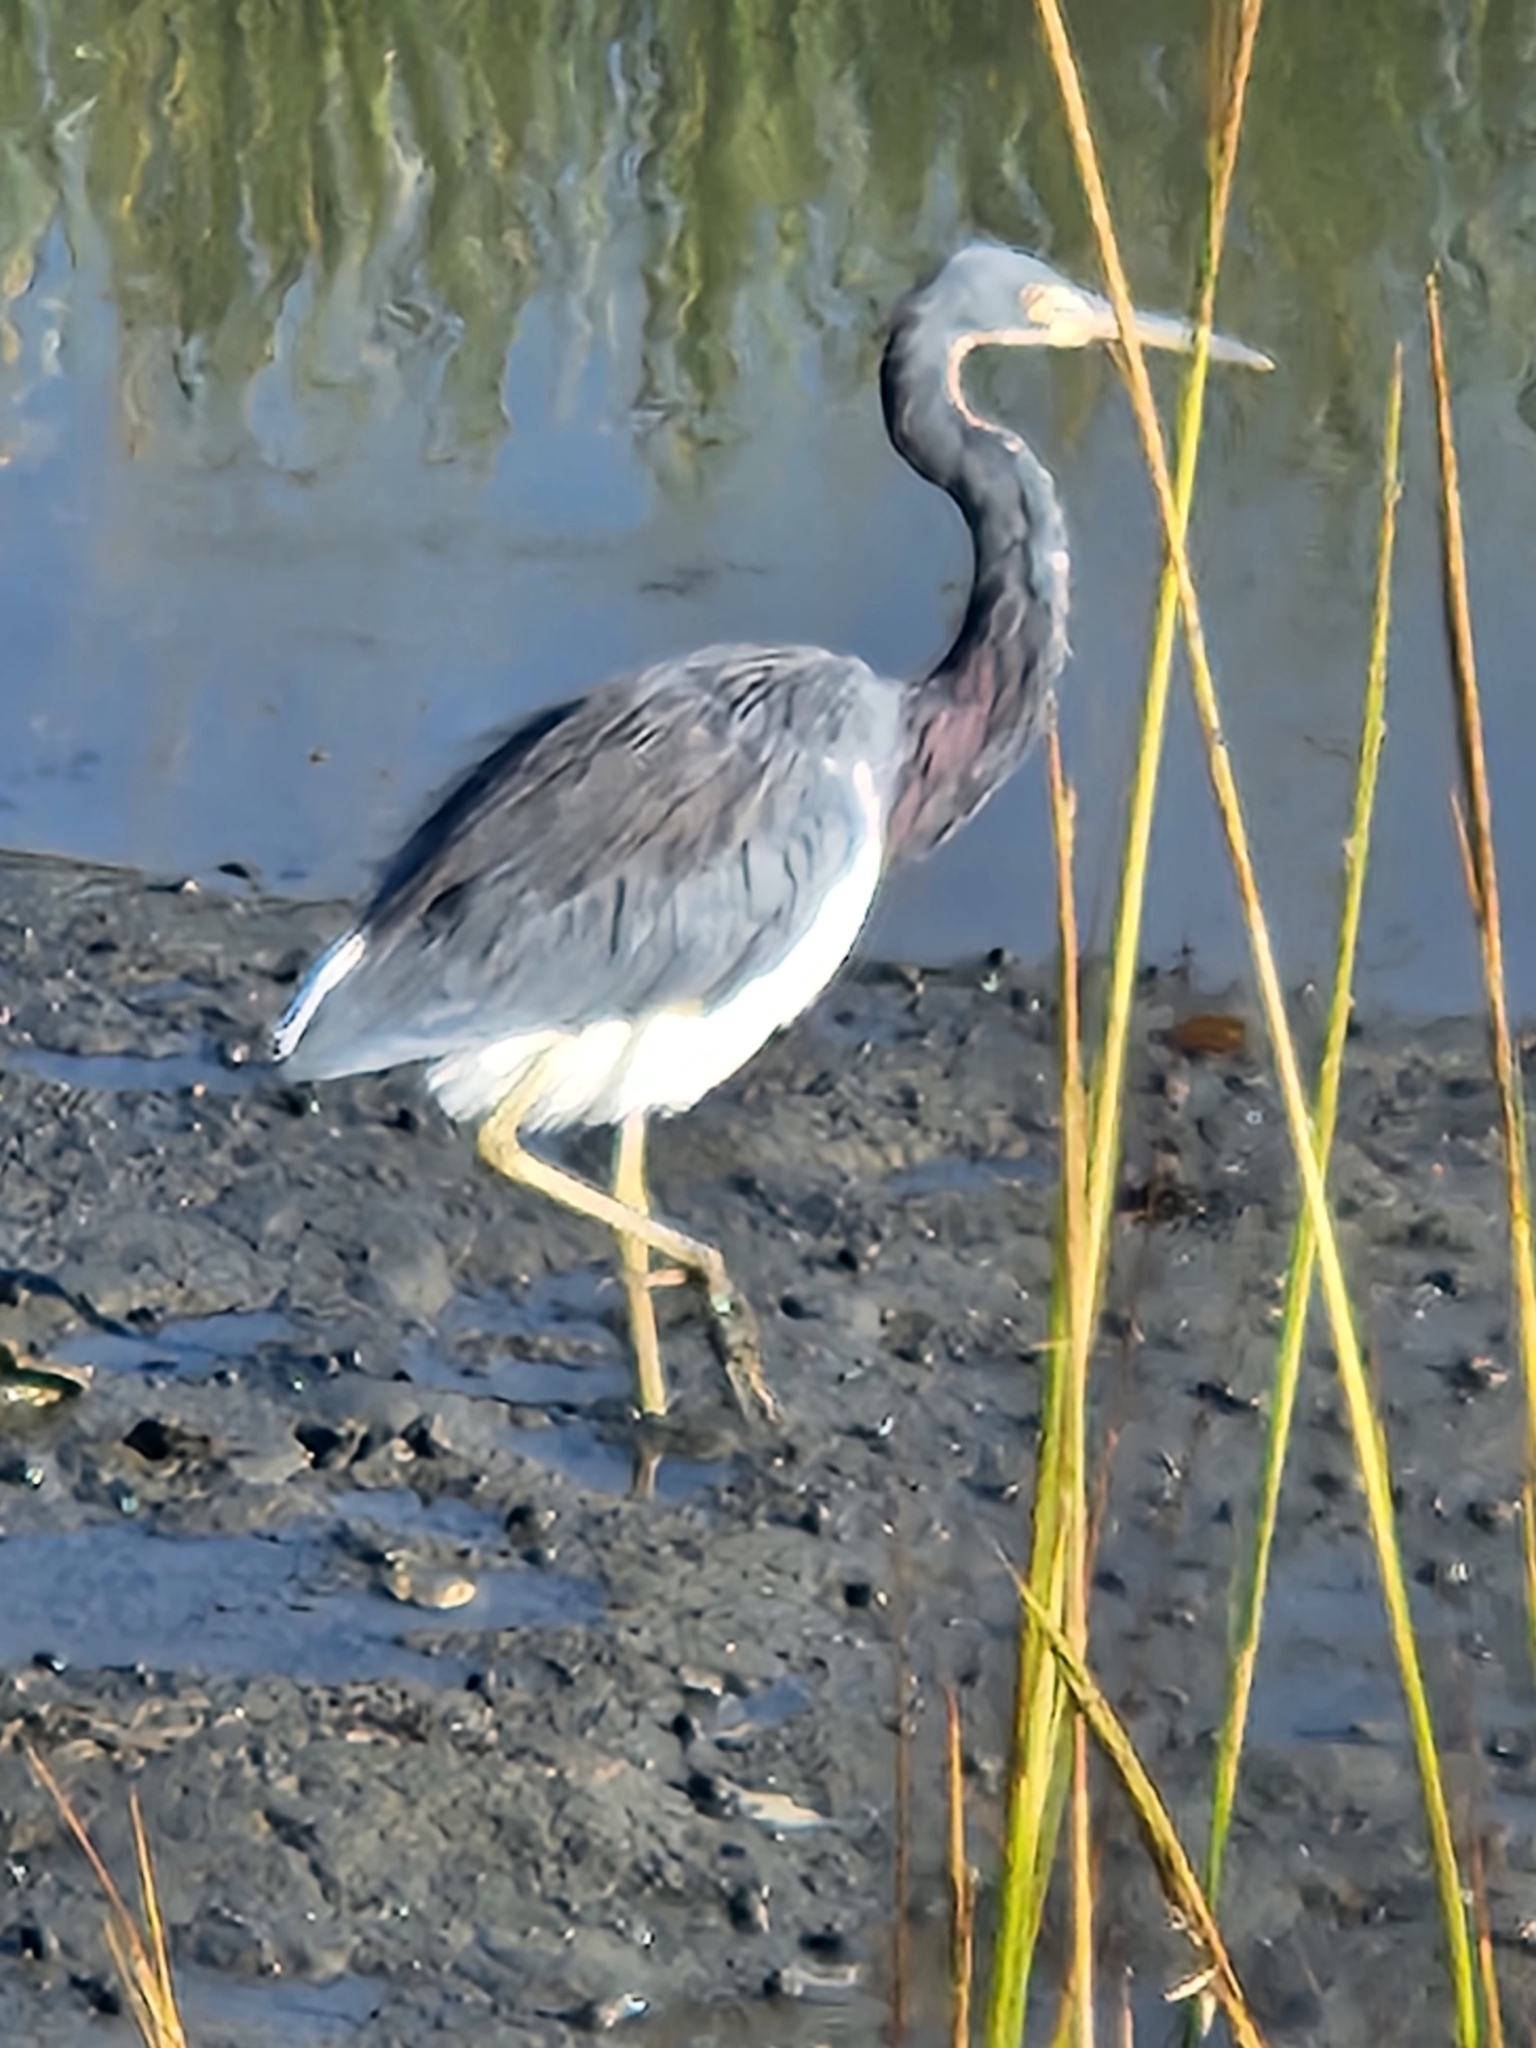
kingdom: Animalia
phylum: Chordata
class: Aves
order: Pelecaniformes
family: Ardeidae
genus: Egretta
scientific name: Egretta tricolor
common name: Tricolored heron
